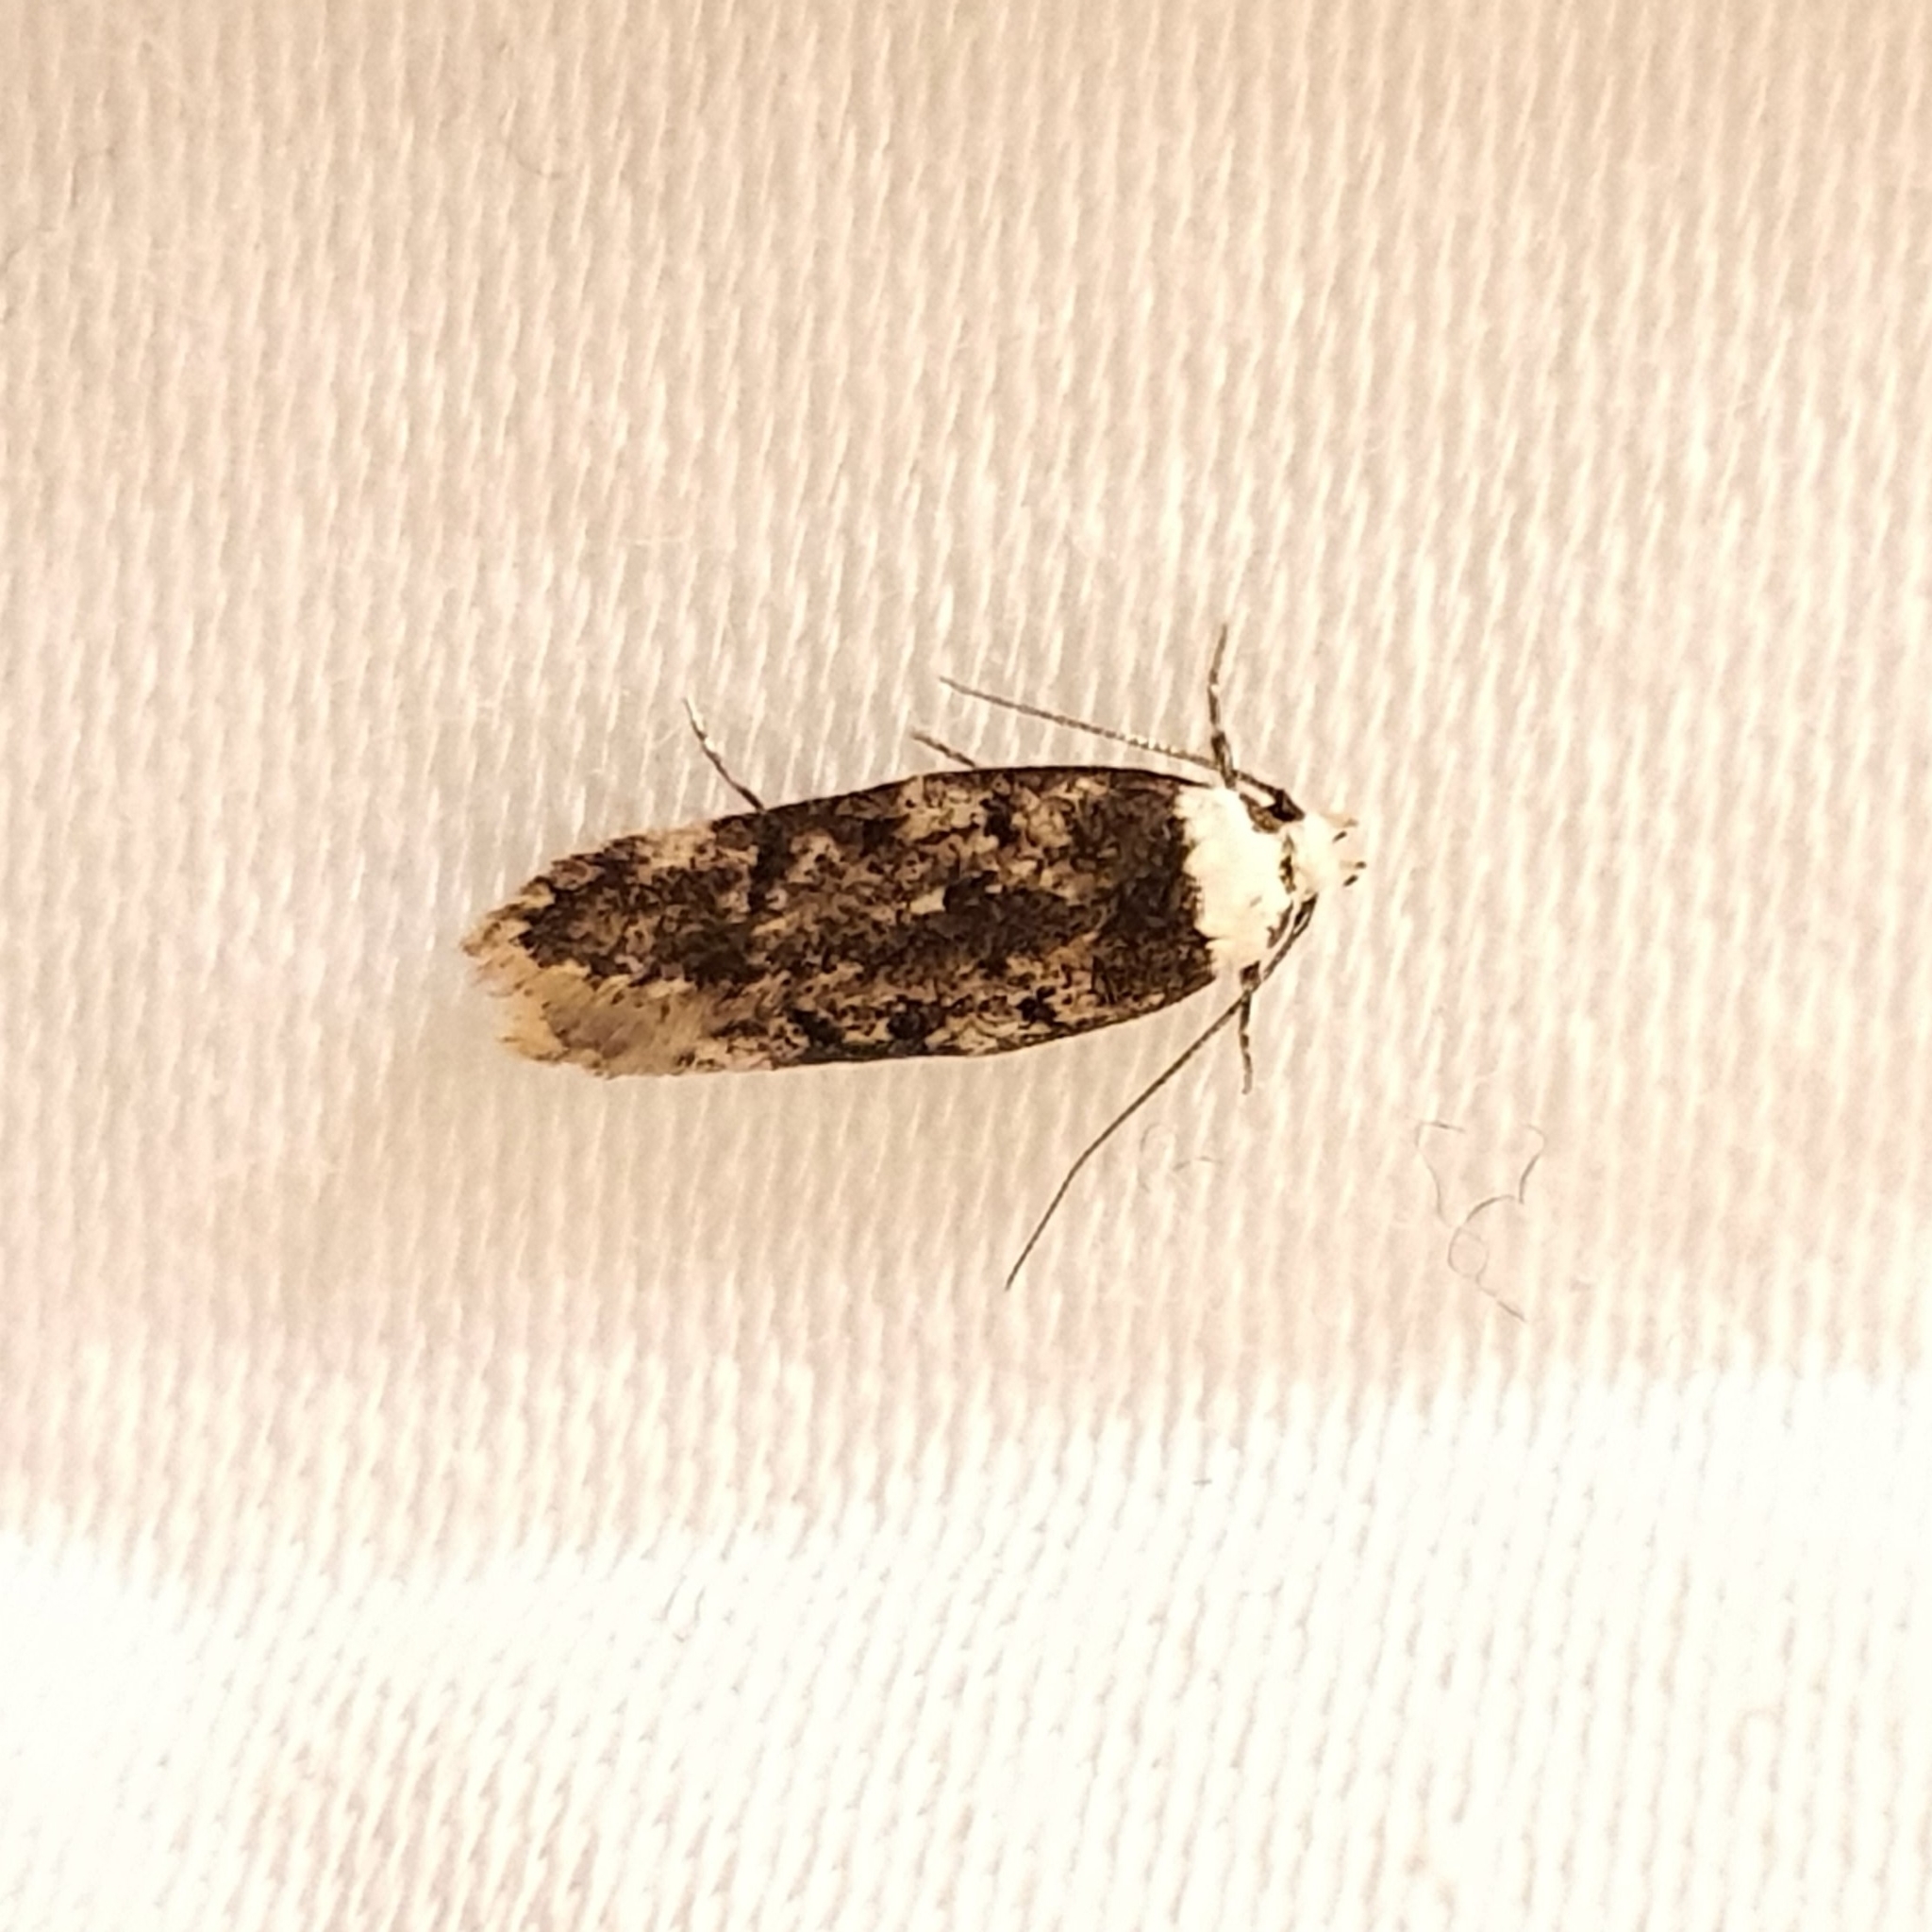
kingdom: Animalia
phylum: Arthropoda
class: Insecta
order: Lepidoptera
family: Oecophoridae
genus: Endrosis
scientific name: Endrosis sarcitrella
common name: White-shouldered house moth
